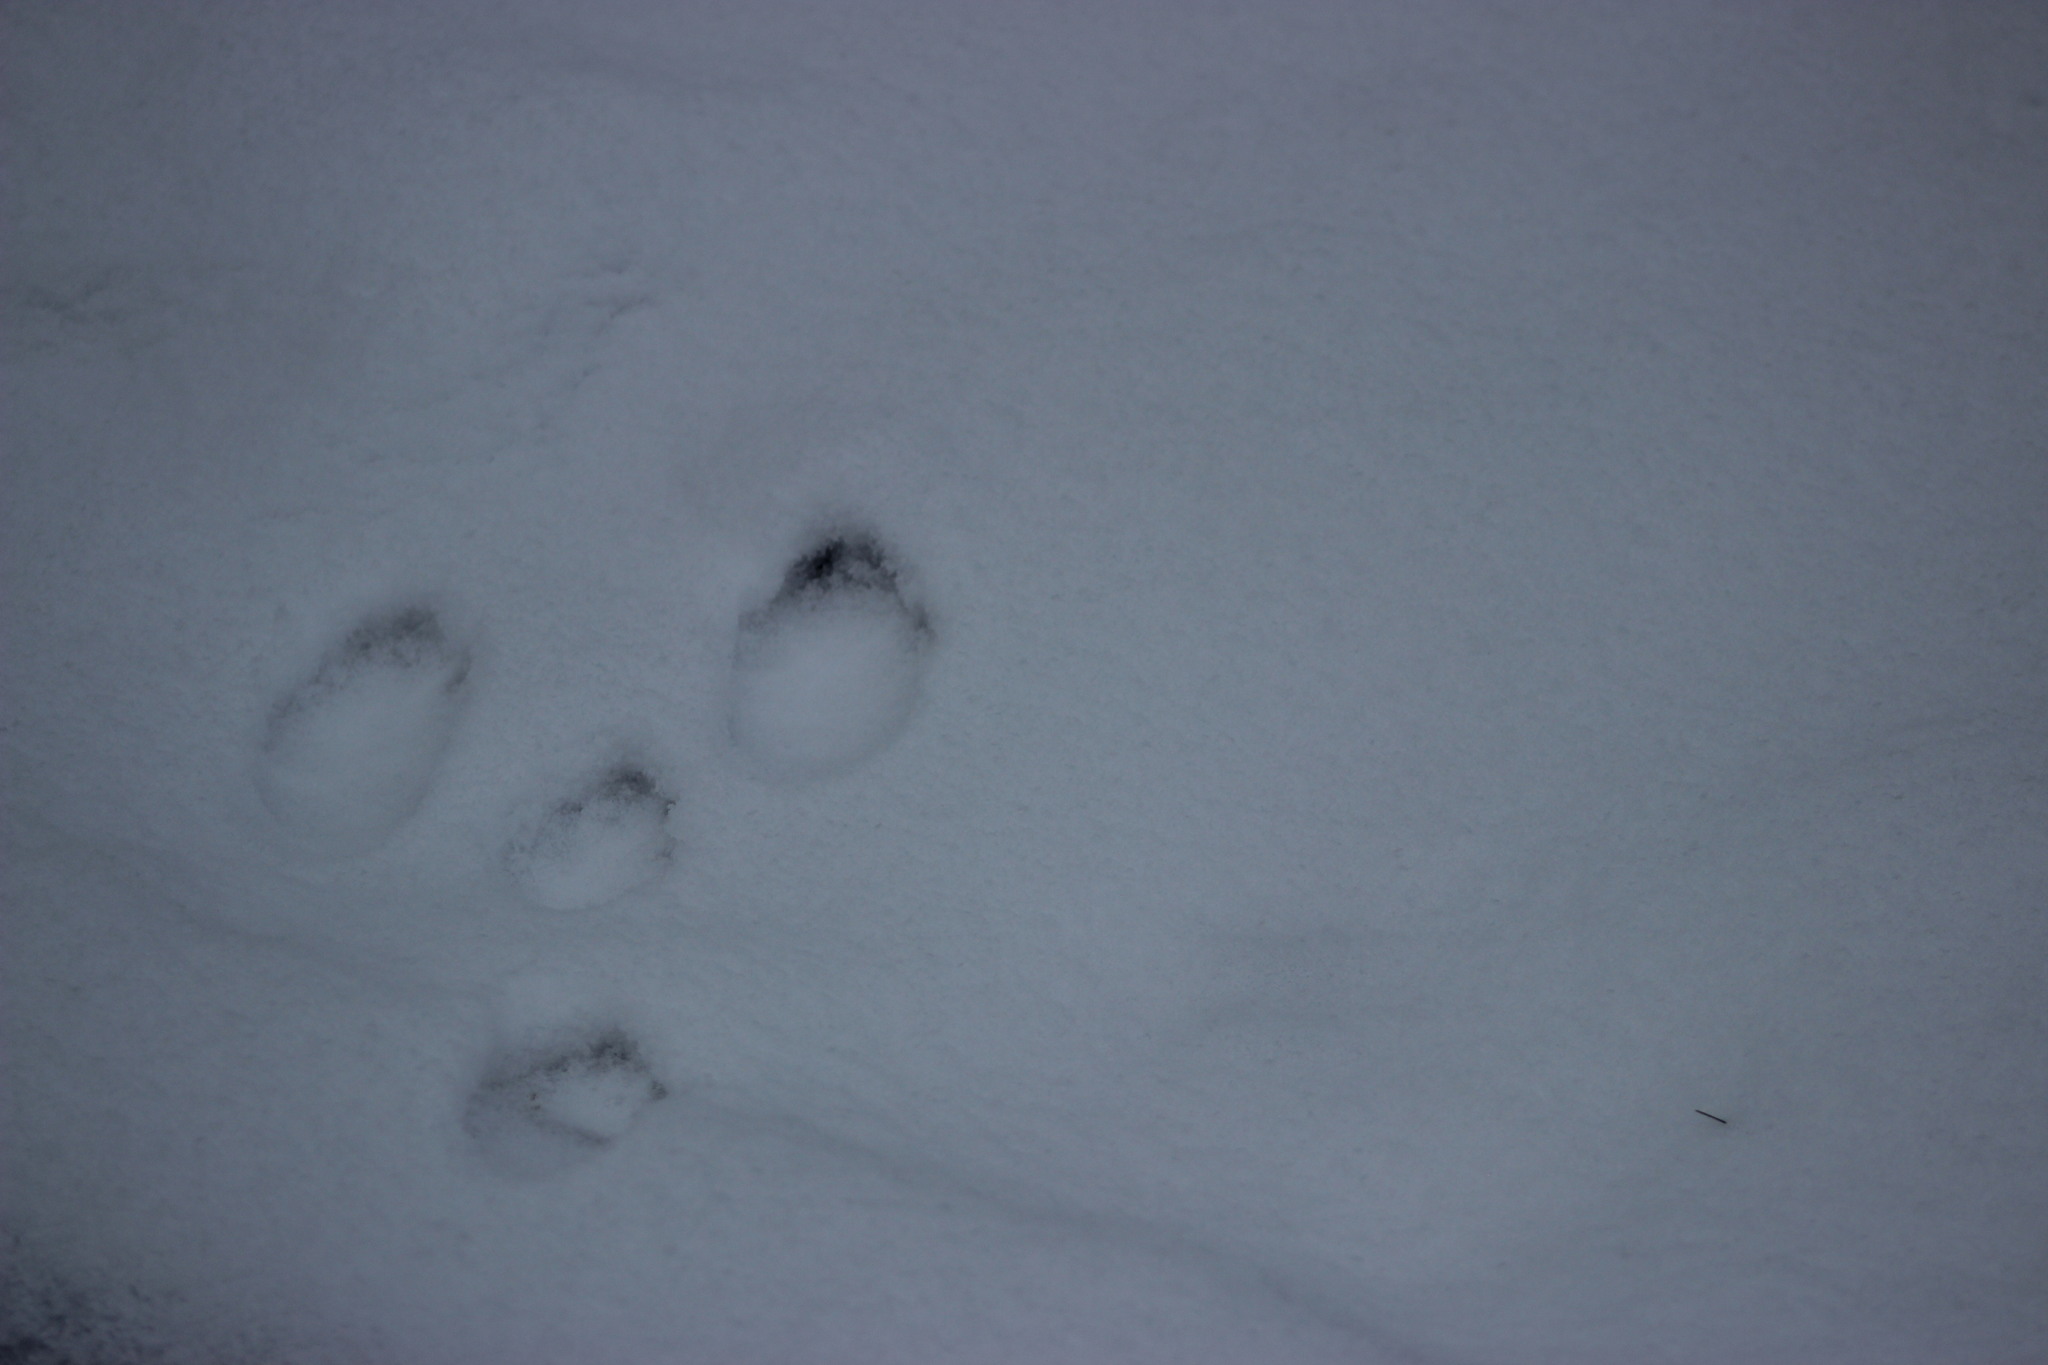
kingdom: Animalia
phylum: Chordata
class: Mammalia
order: Lagomorpha
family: Leporidae
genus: Lepus
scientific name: Lepus timidus
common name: Mountain hare
